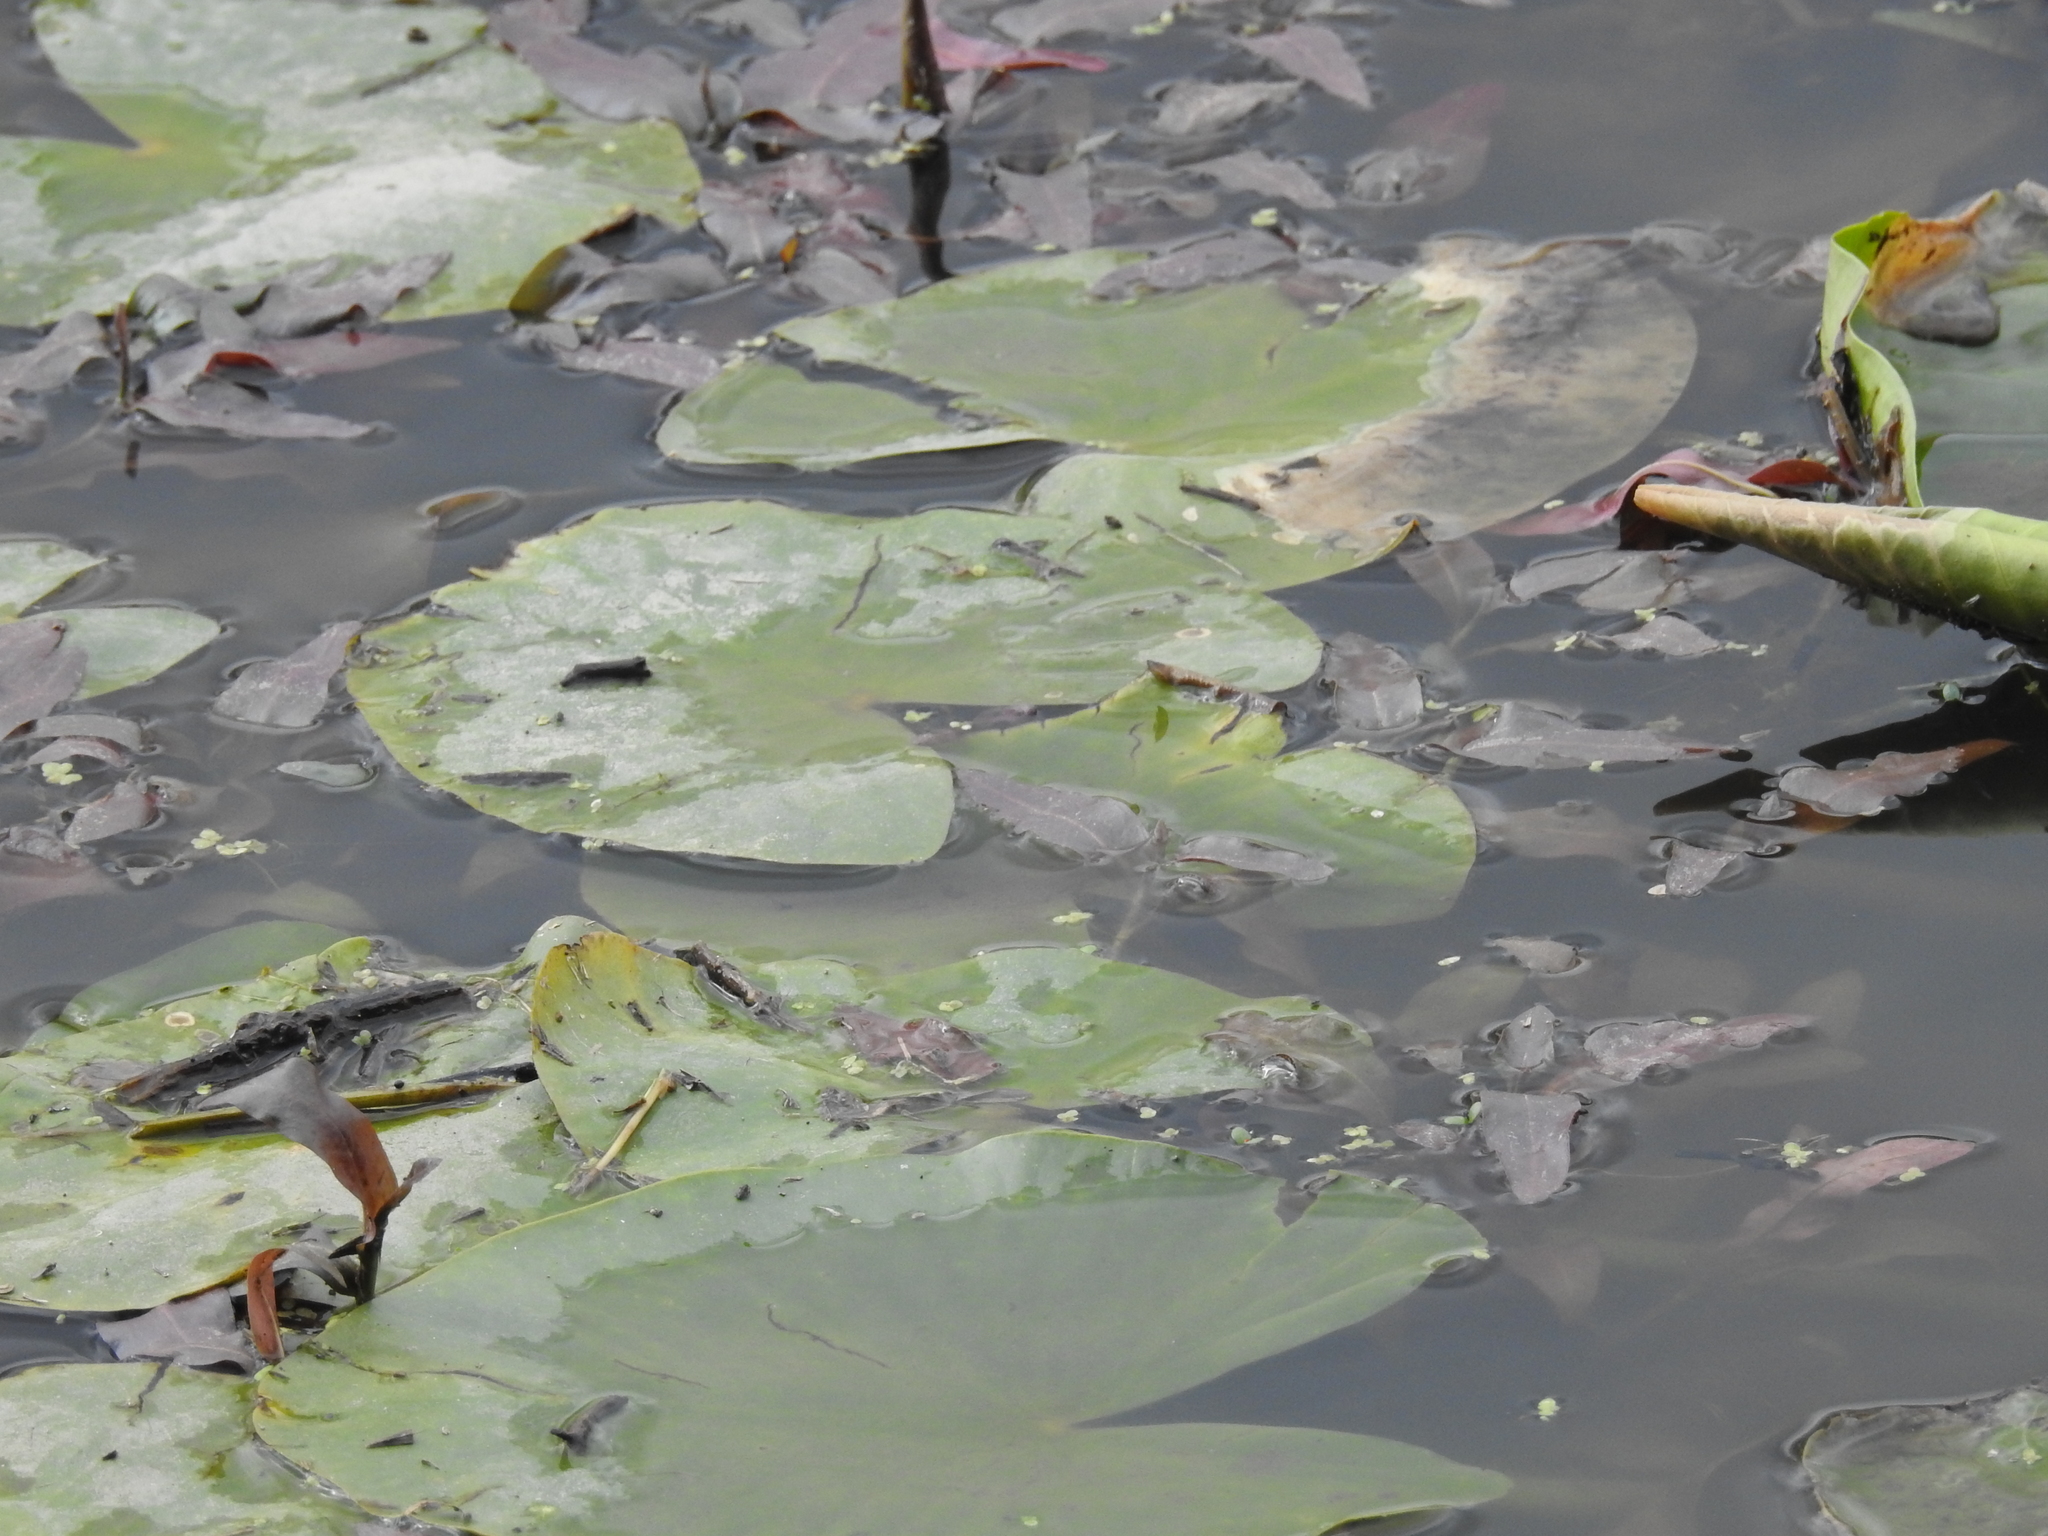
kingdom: Plantae
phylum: Tracheophyta
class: Magnoliopsida
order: Nymphaeales
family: Nymphaeaceae
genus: Nuphar
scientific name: Nuphar advena
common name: Spatter-dock
